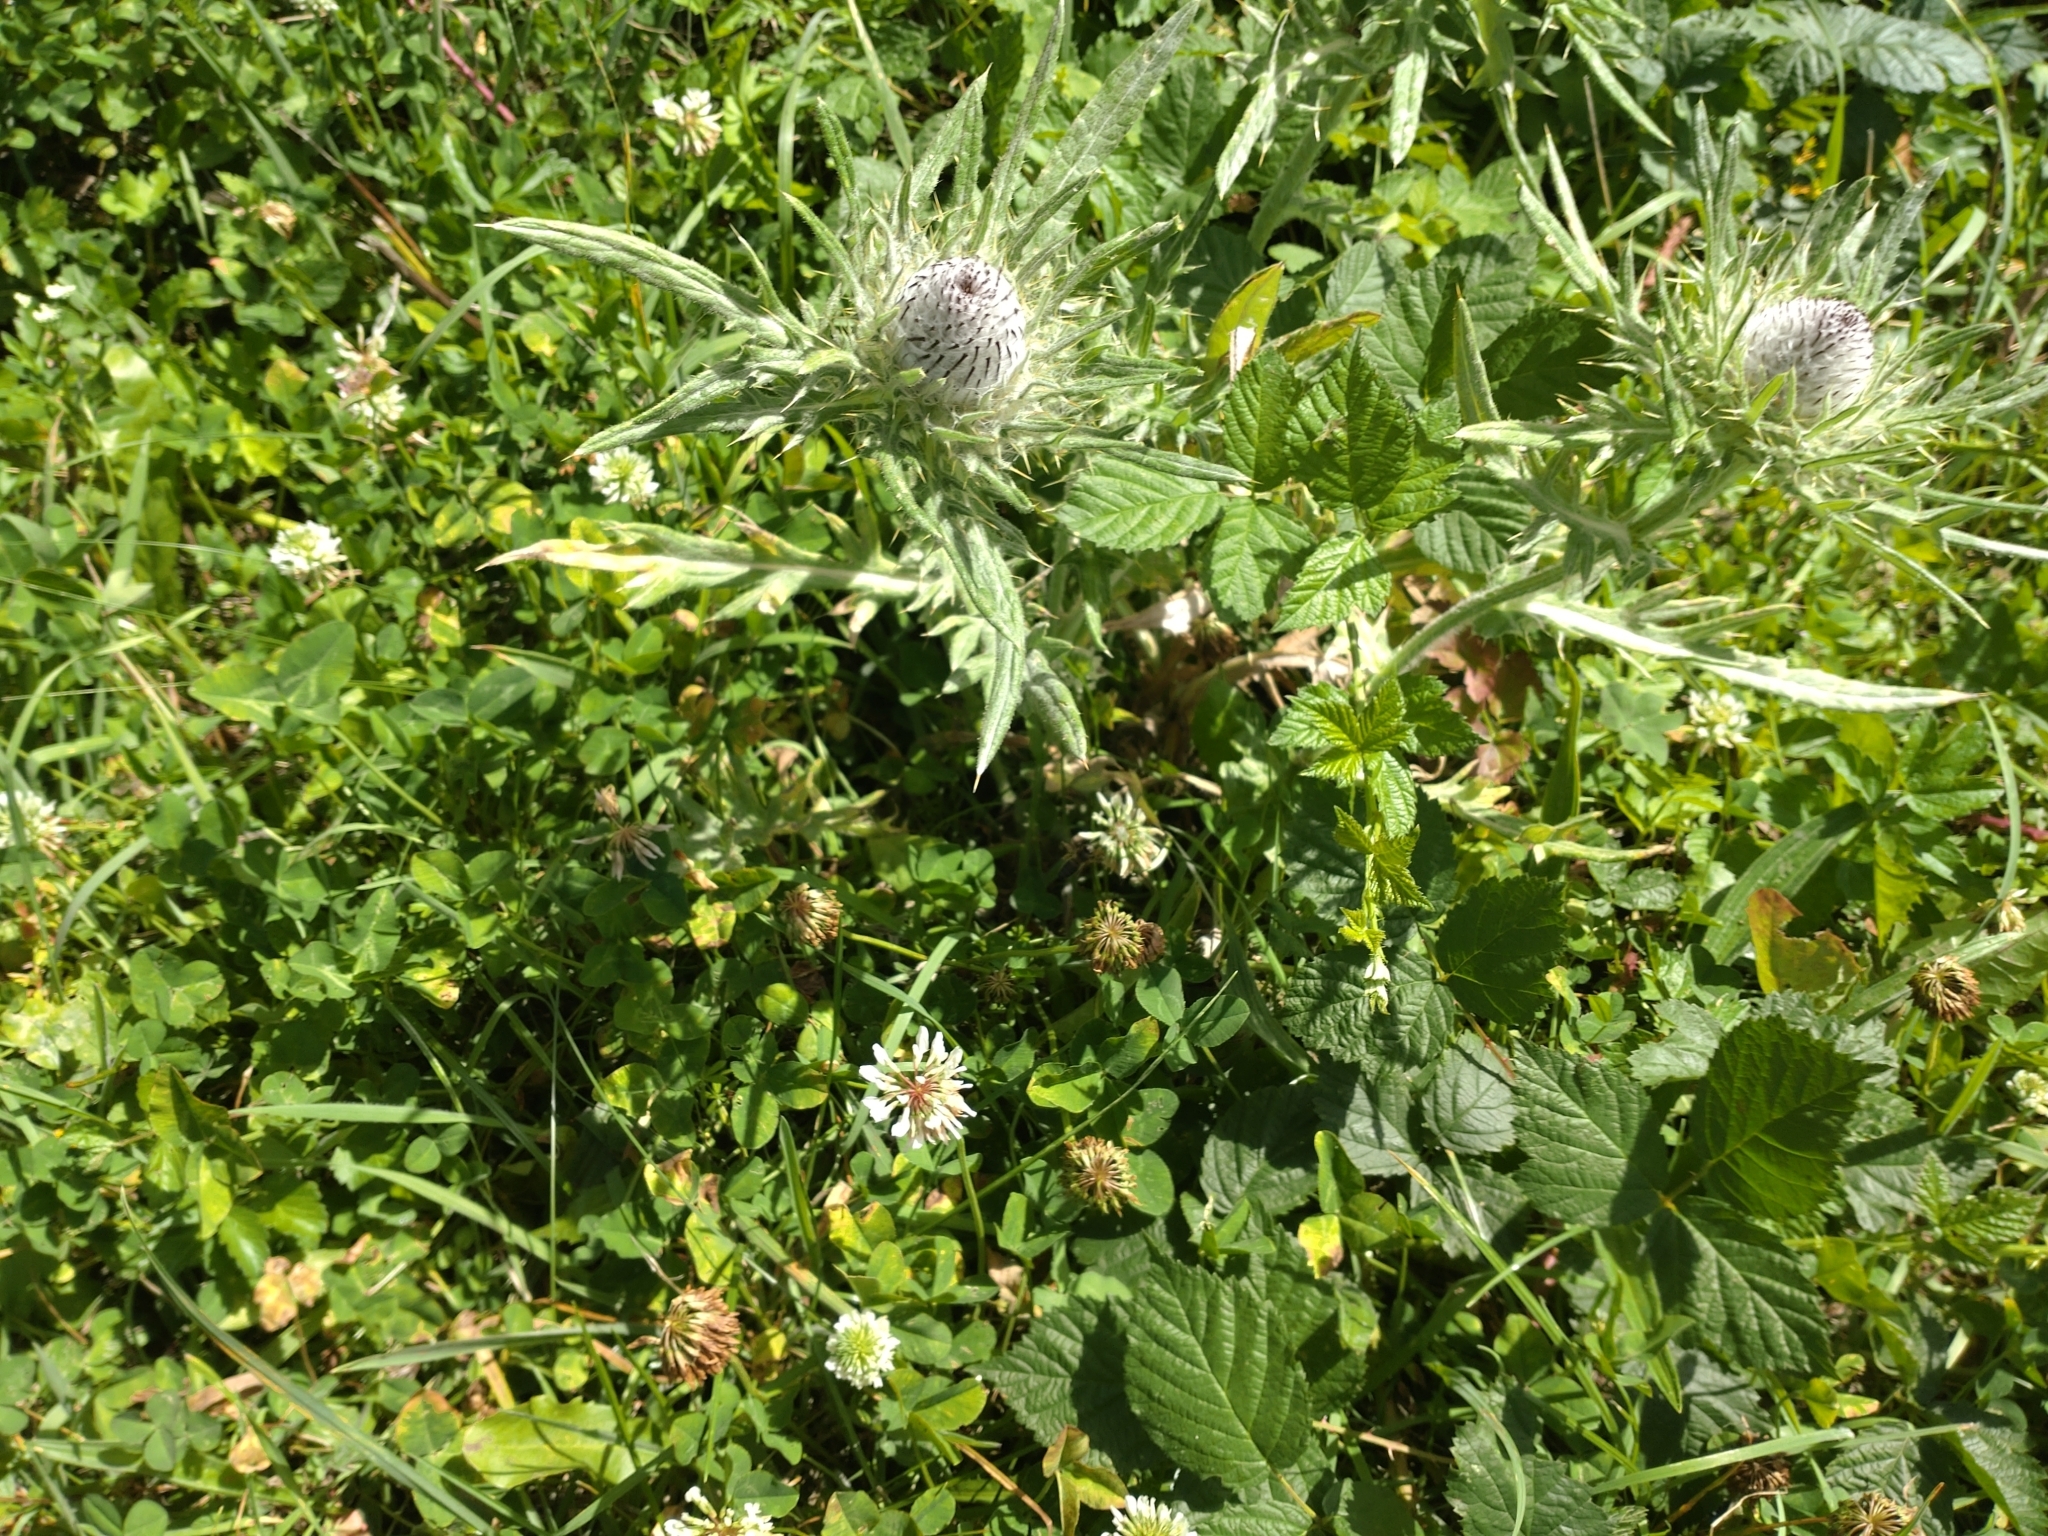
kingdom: Plantae
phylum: Tracheophyta
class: Magnoliopsida
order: Asterales
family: Asteraceae
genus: Lophiolepis
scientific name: Lophiolepis eriophora
